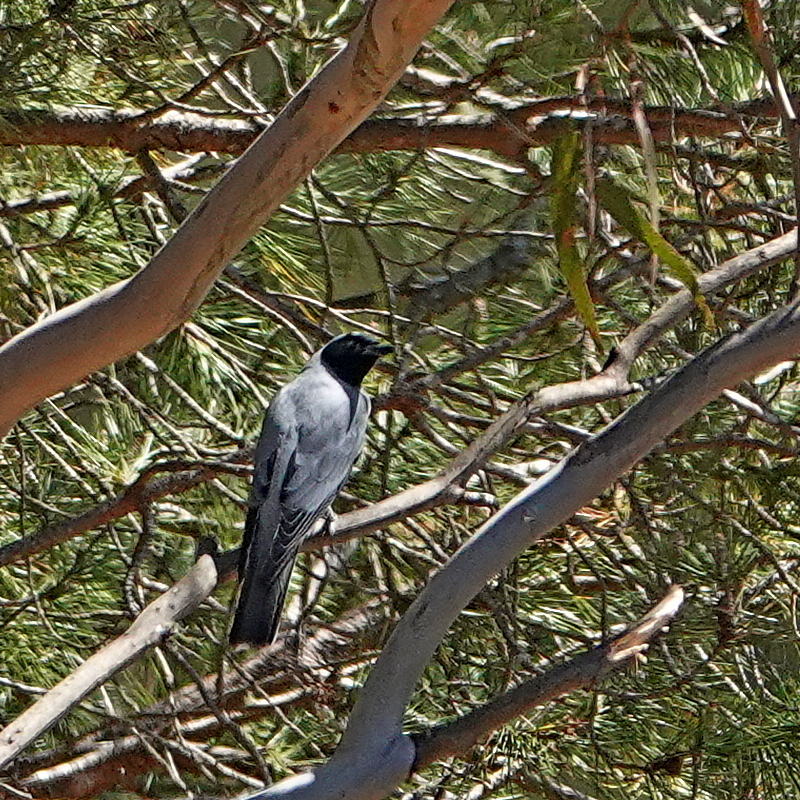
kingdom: Animalia
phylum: Chordata
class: Aves
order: Passeriformes
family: Campephagidae
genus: Coracina
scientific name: Coracina novaehollandiae
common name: Black-faced cuckooshrike
